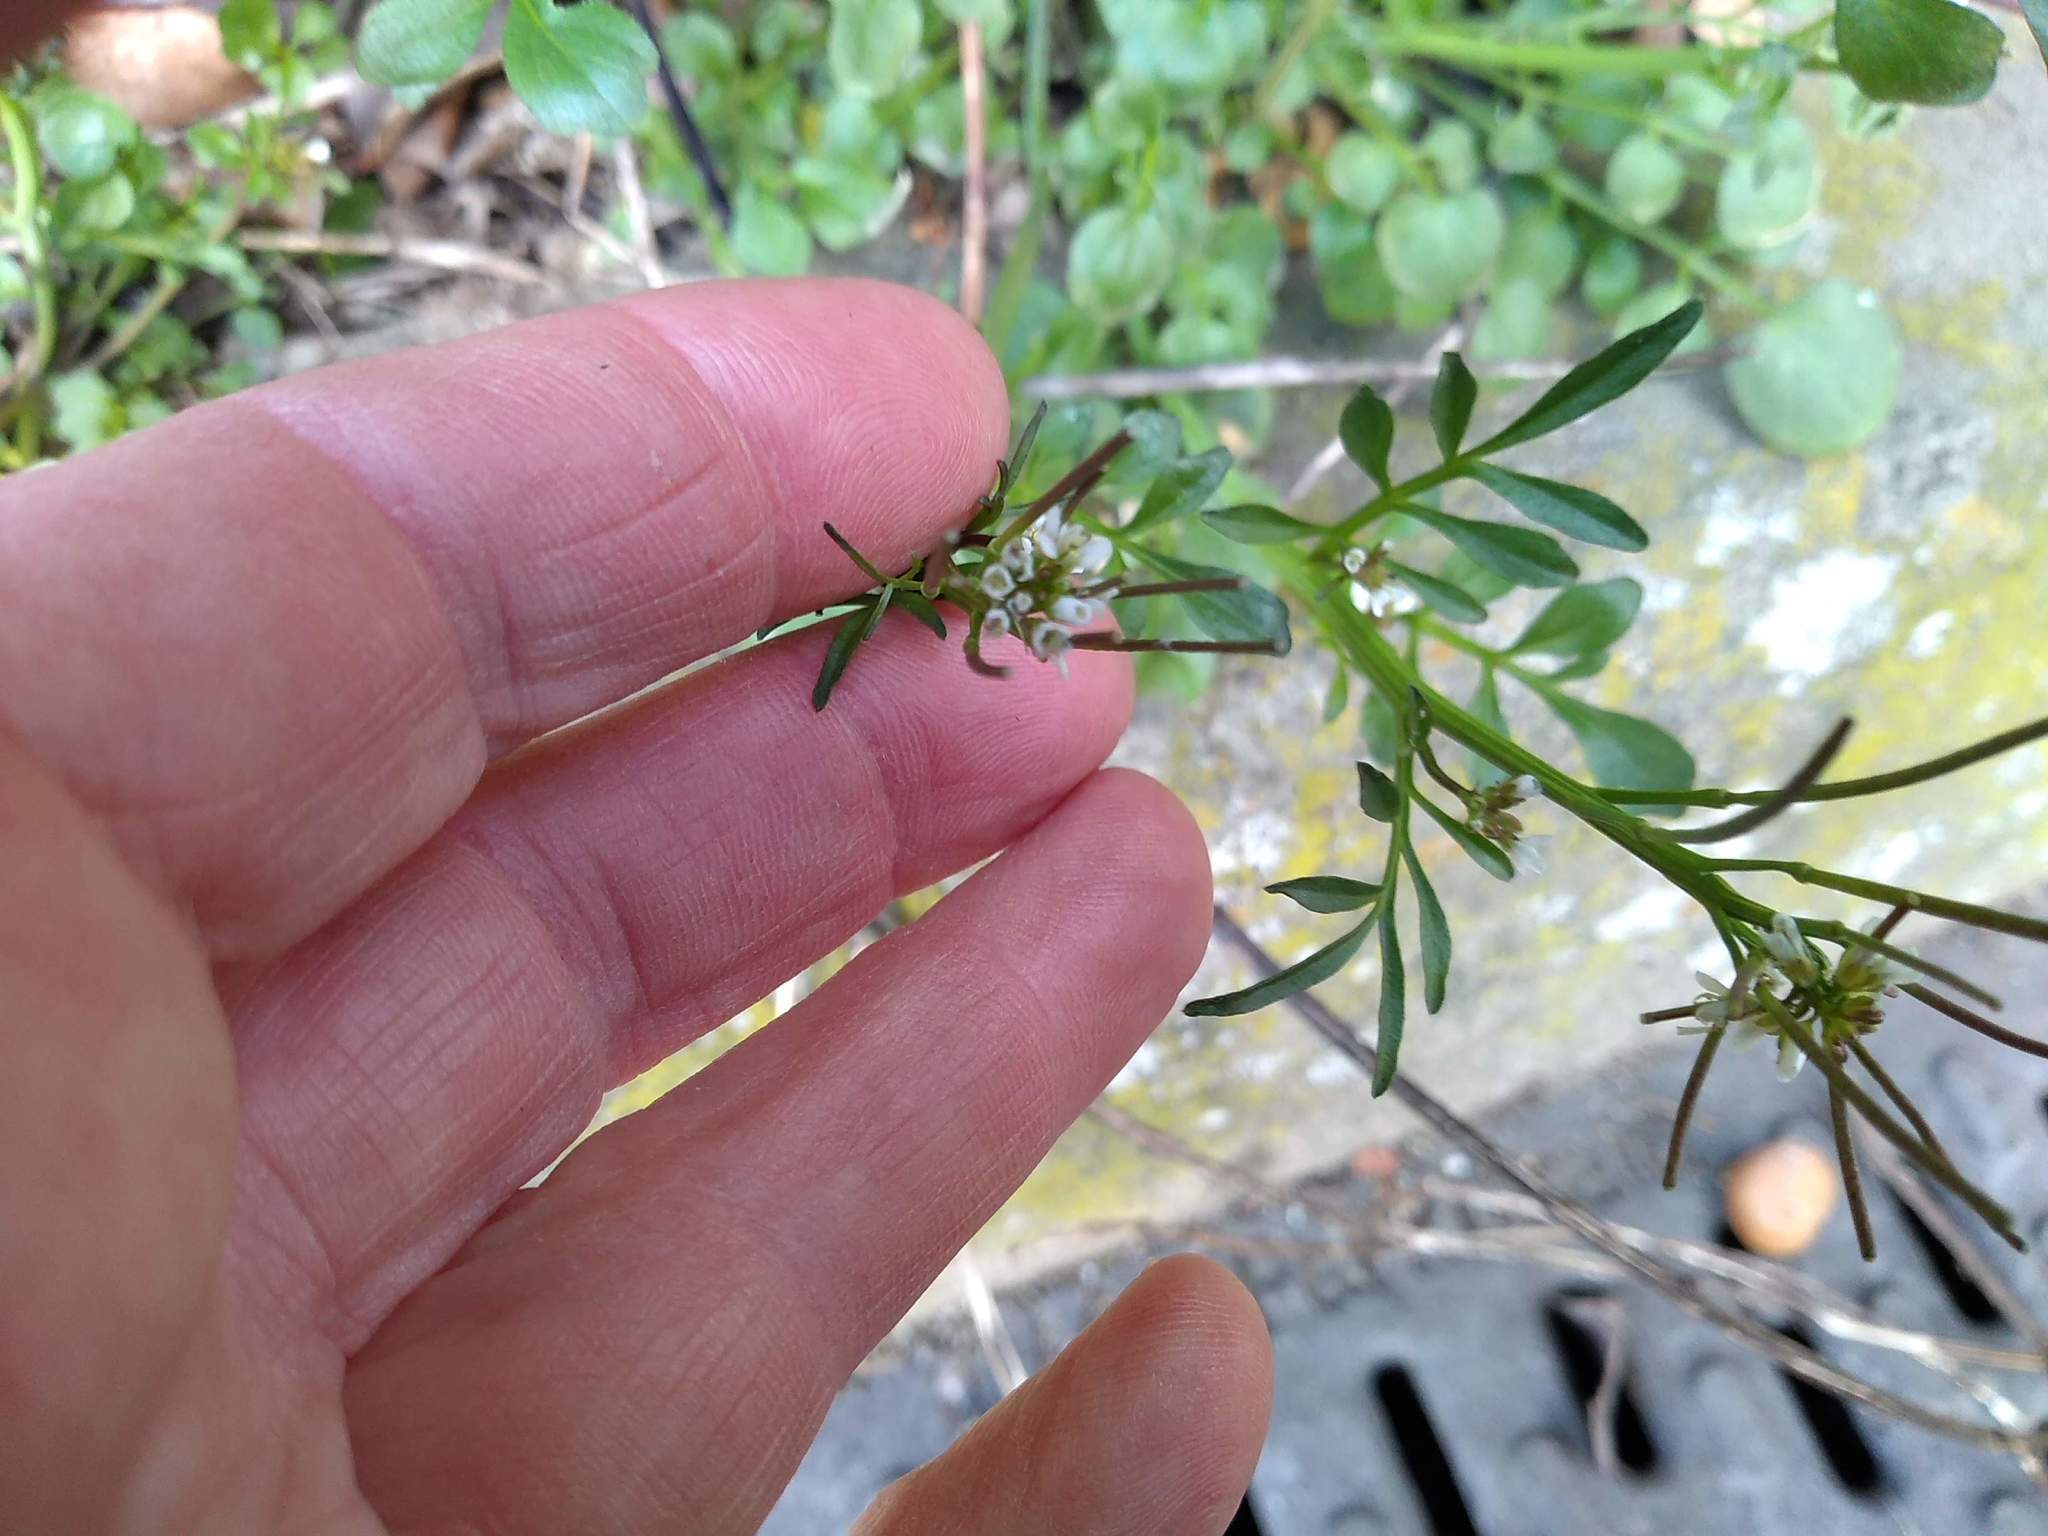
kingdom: Plantae
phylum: Tracheophyta
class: Magnoliopsida
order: Brassicales
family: Brassicaceae
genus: Cardamine
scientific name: Cardamine hirsuta
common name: Hairy bittercress
